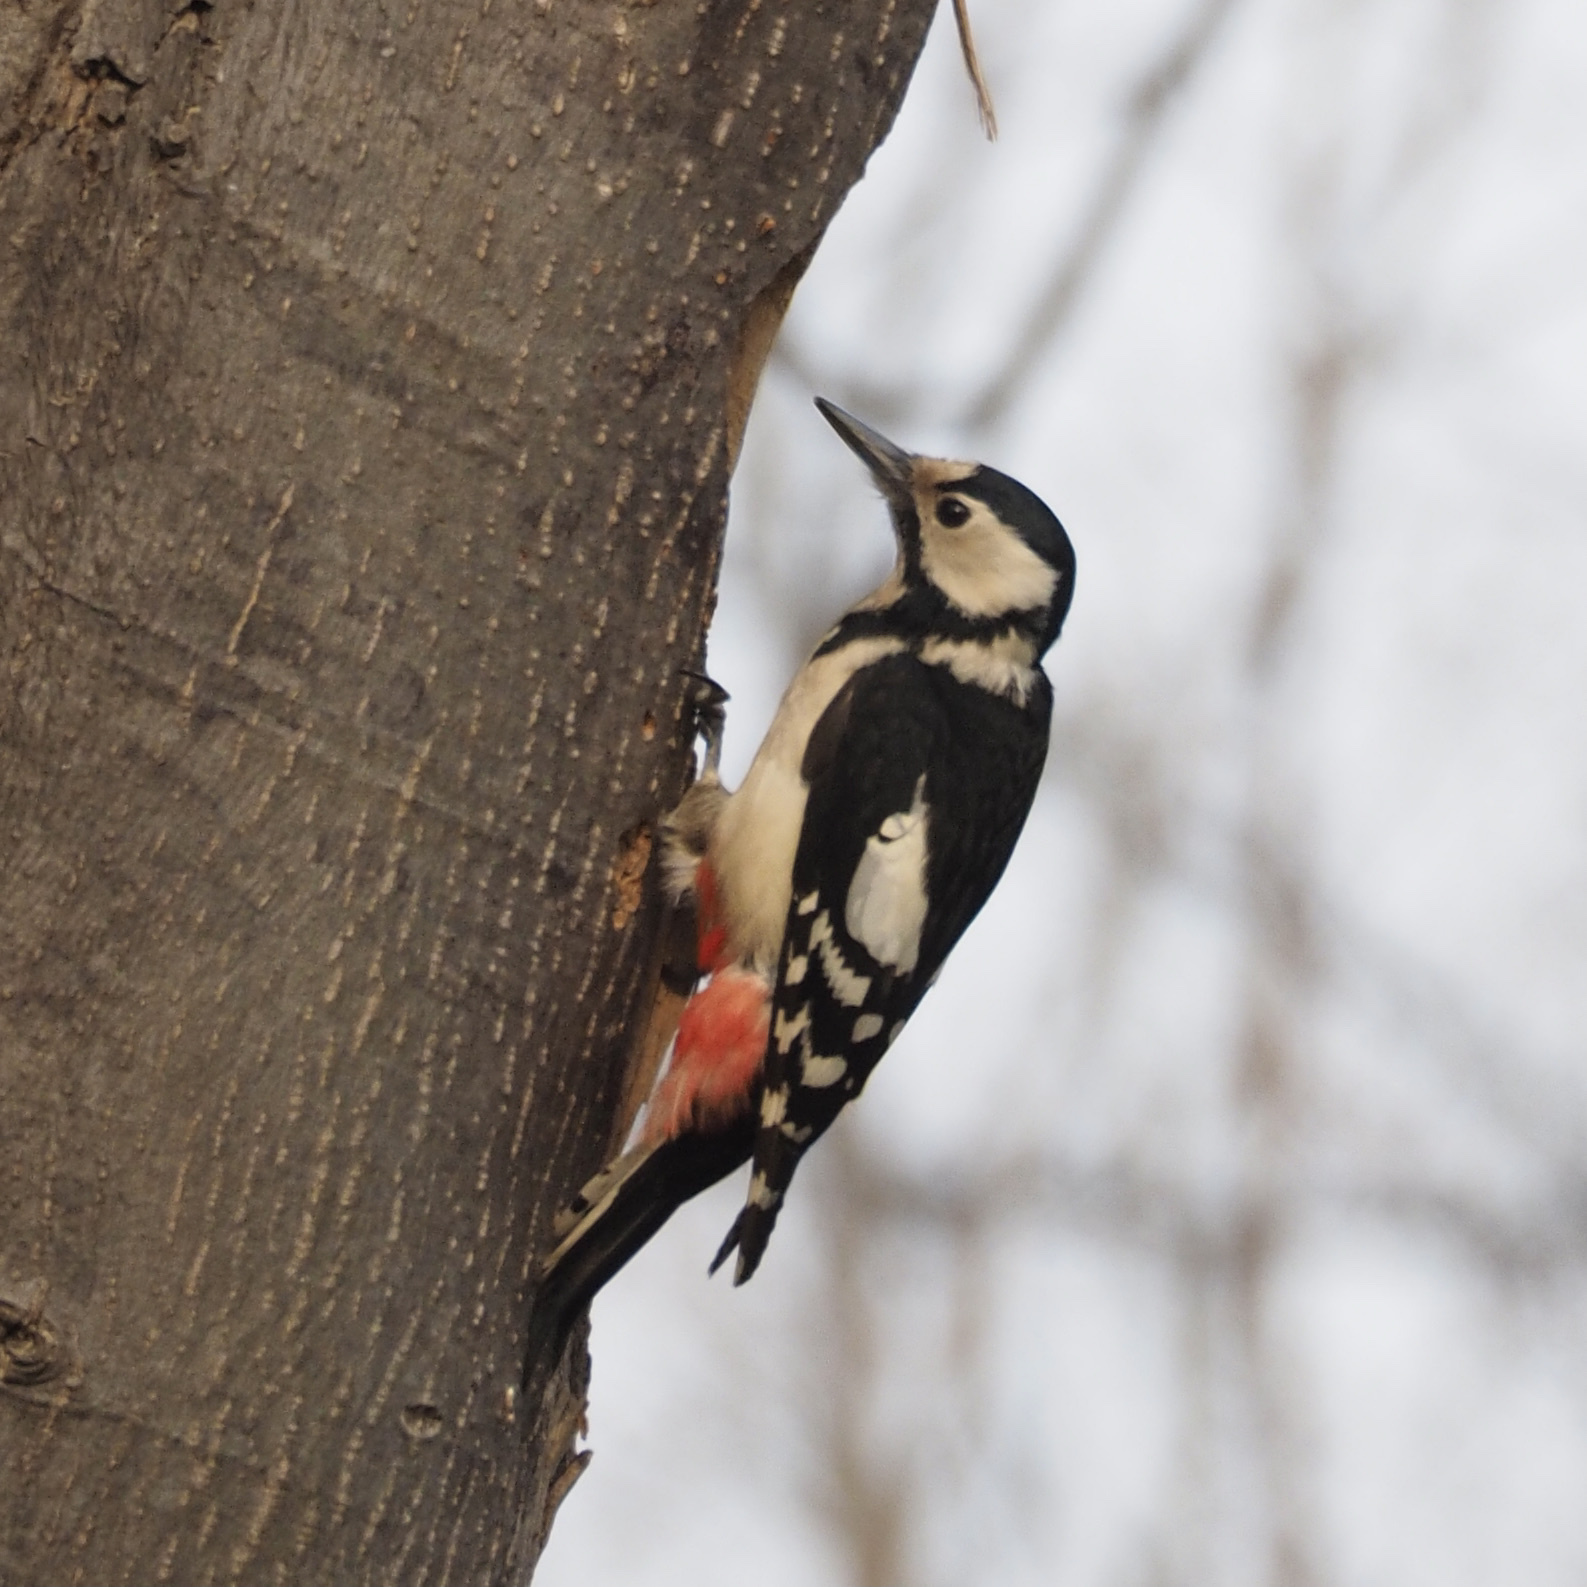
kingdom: Animalia
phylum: Chordata
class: Aves
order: Piciformes
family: Picidae
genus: Dendrocopos
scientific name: Dendrocopos major
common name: Great spotted woodpecker
